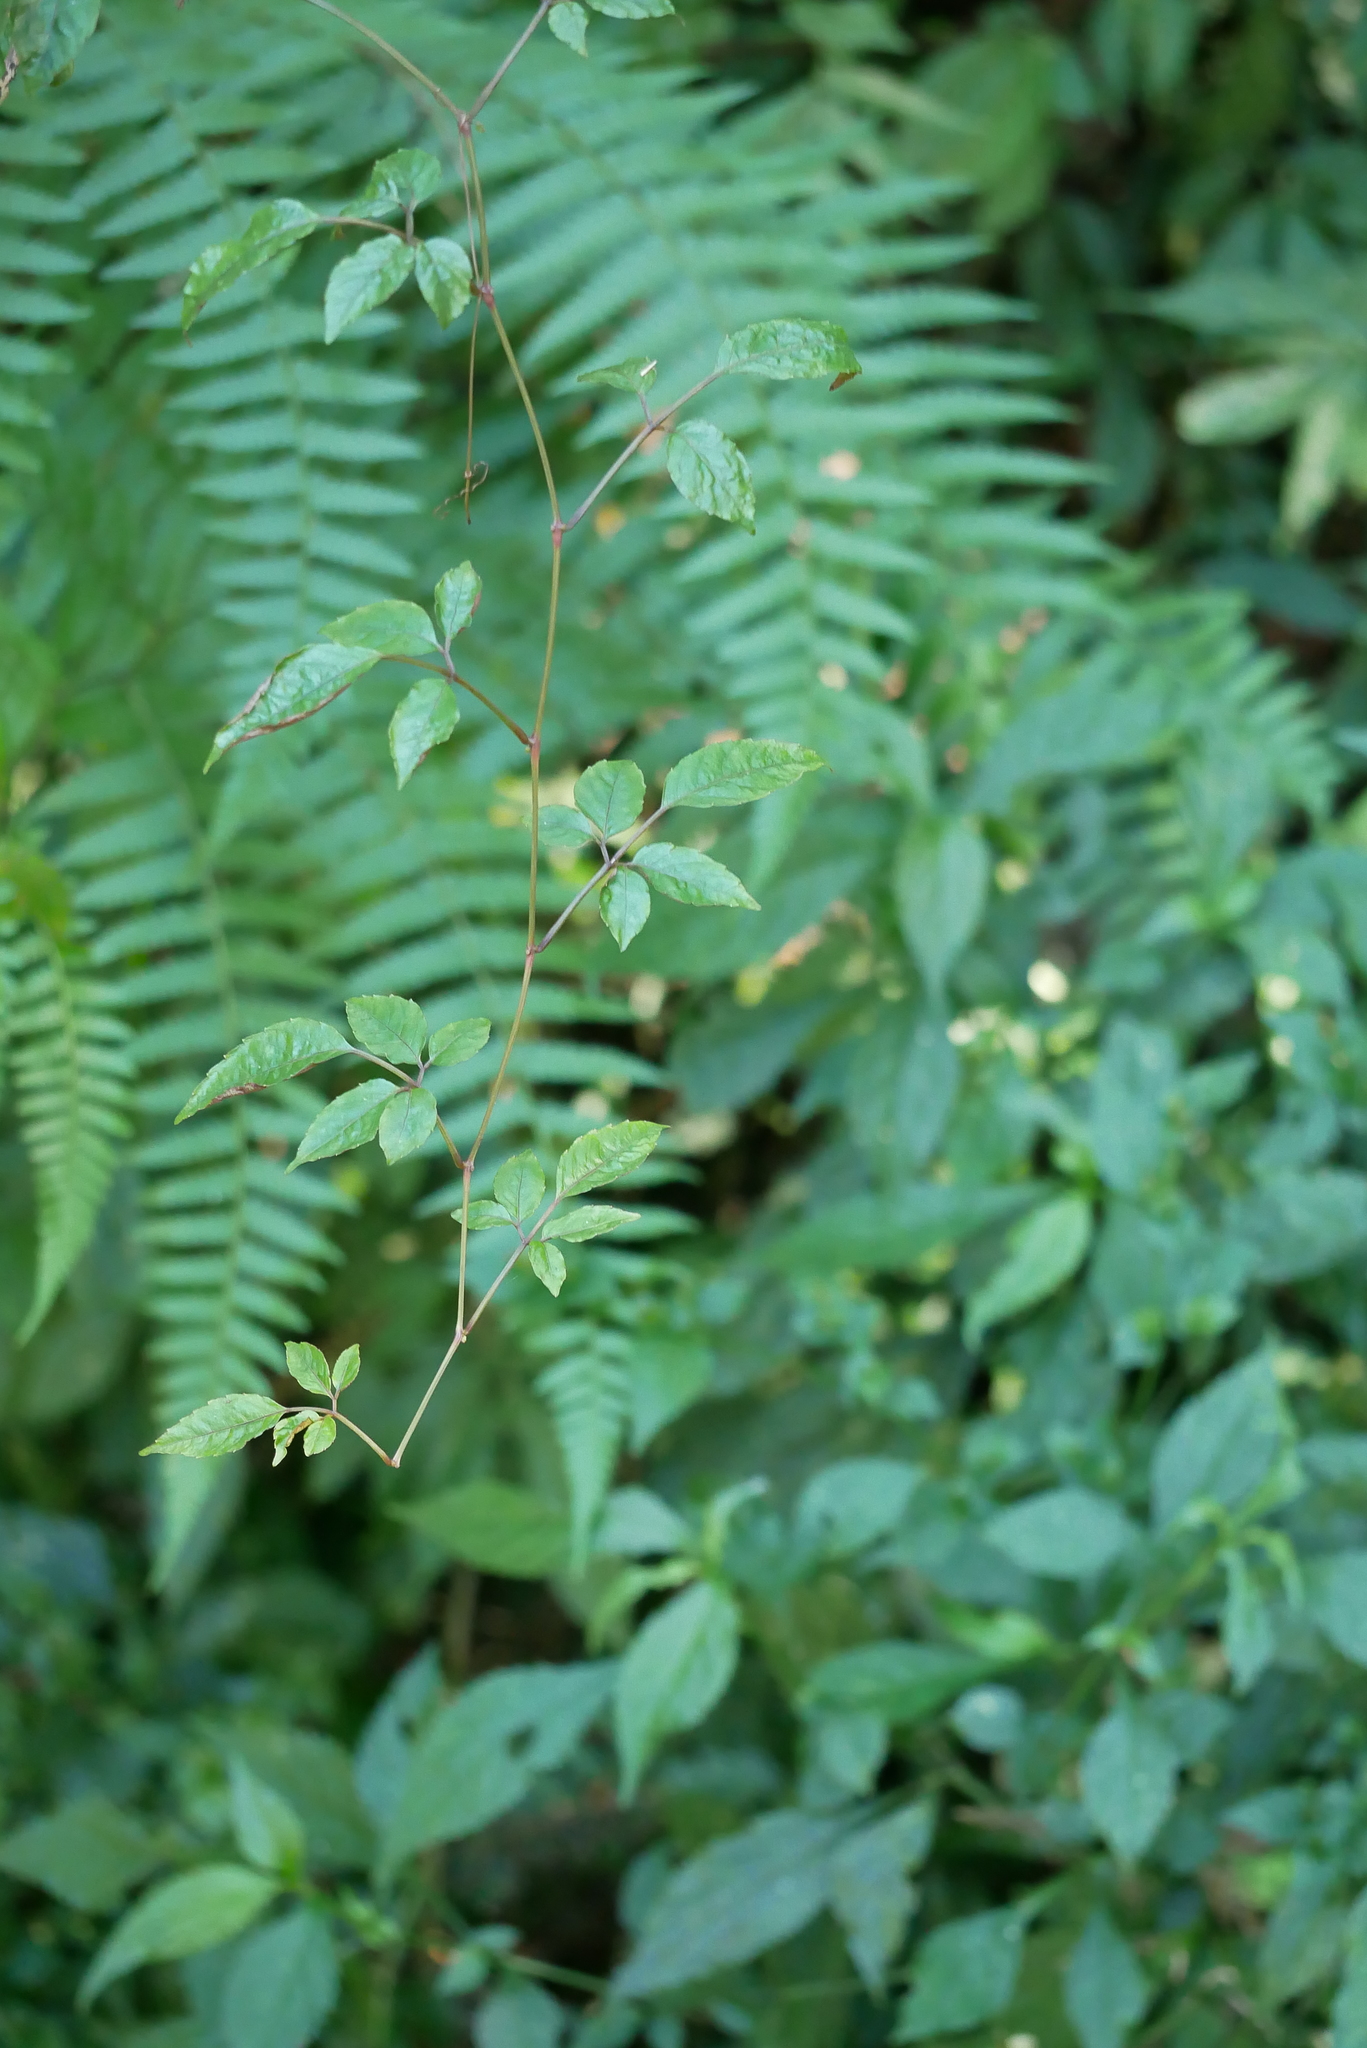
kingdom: Plantae
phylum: Tracheophyta
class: Magnoliopsida
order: Vitales
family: Vitaceae
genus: Causonis
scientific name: Causonis corniculata
